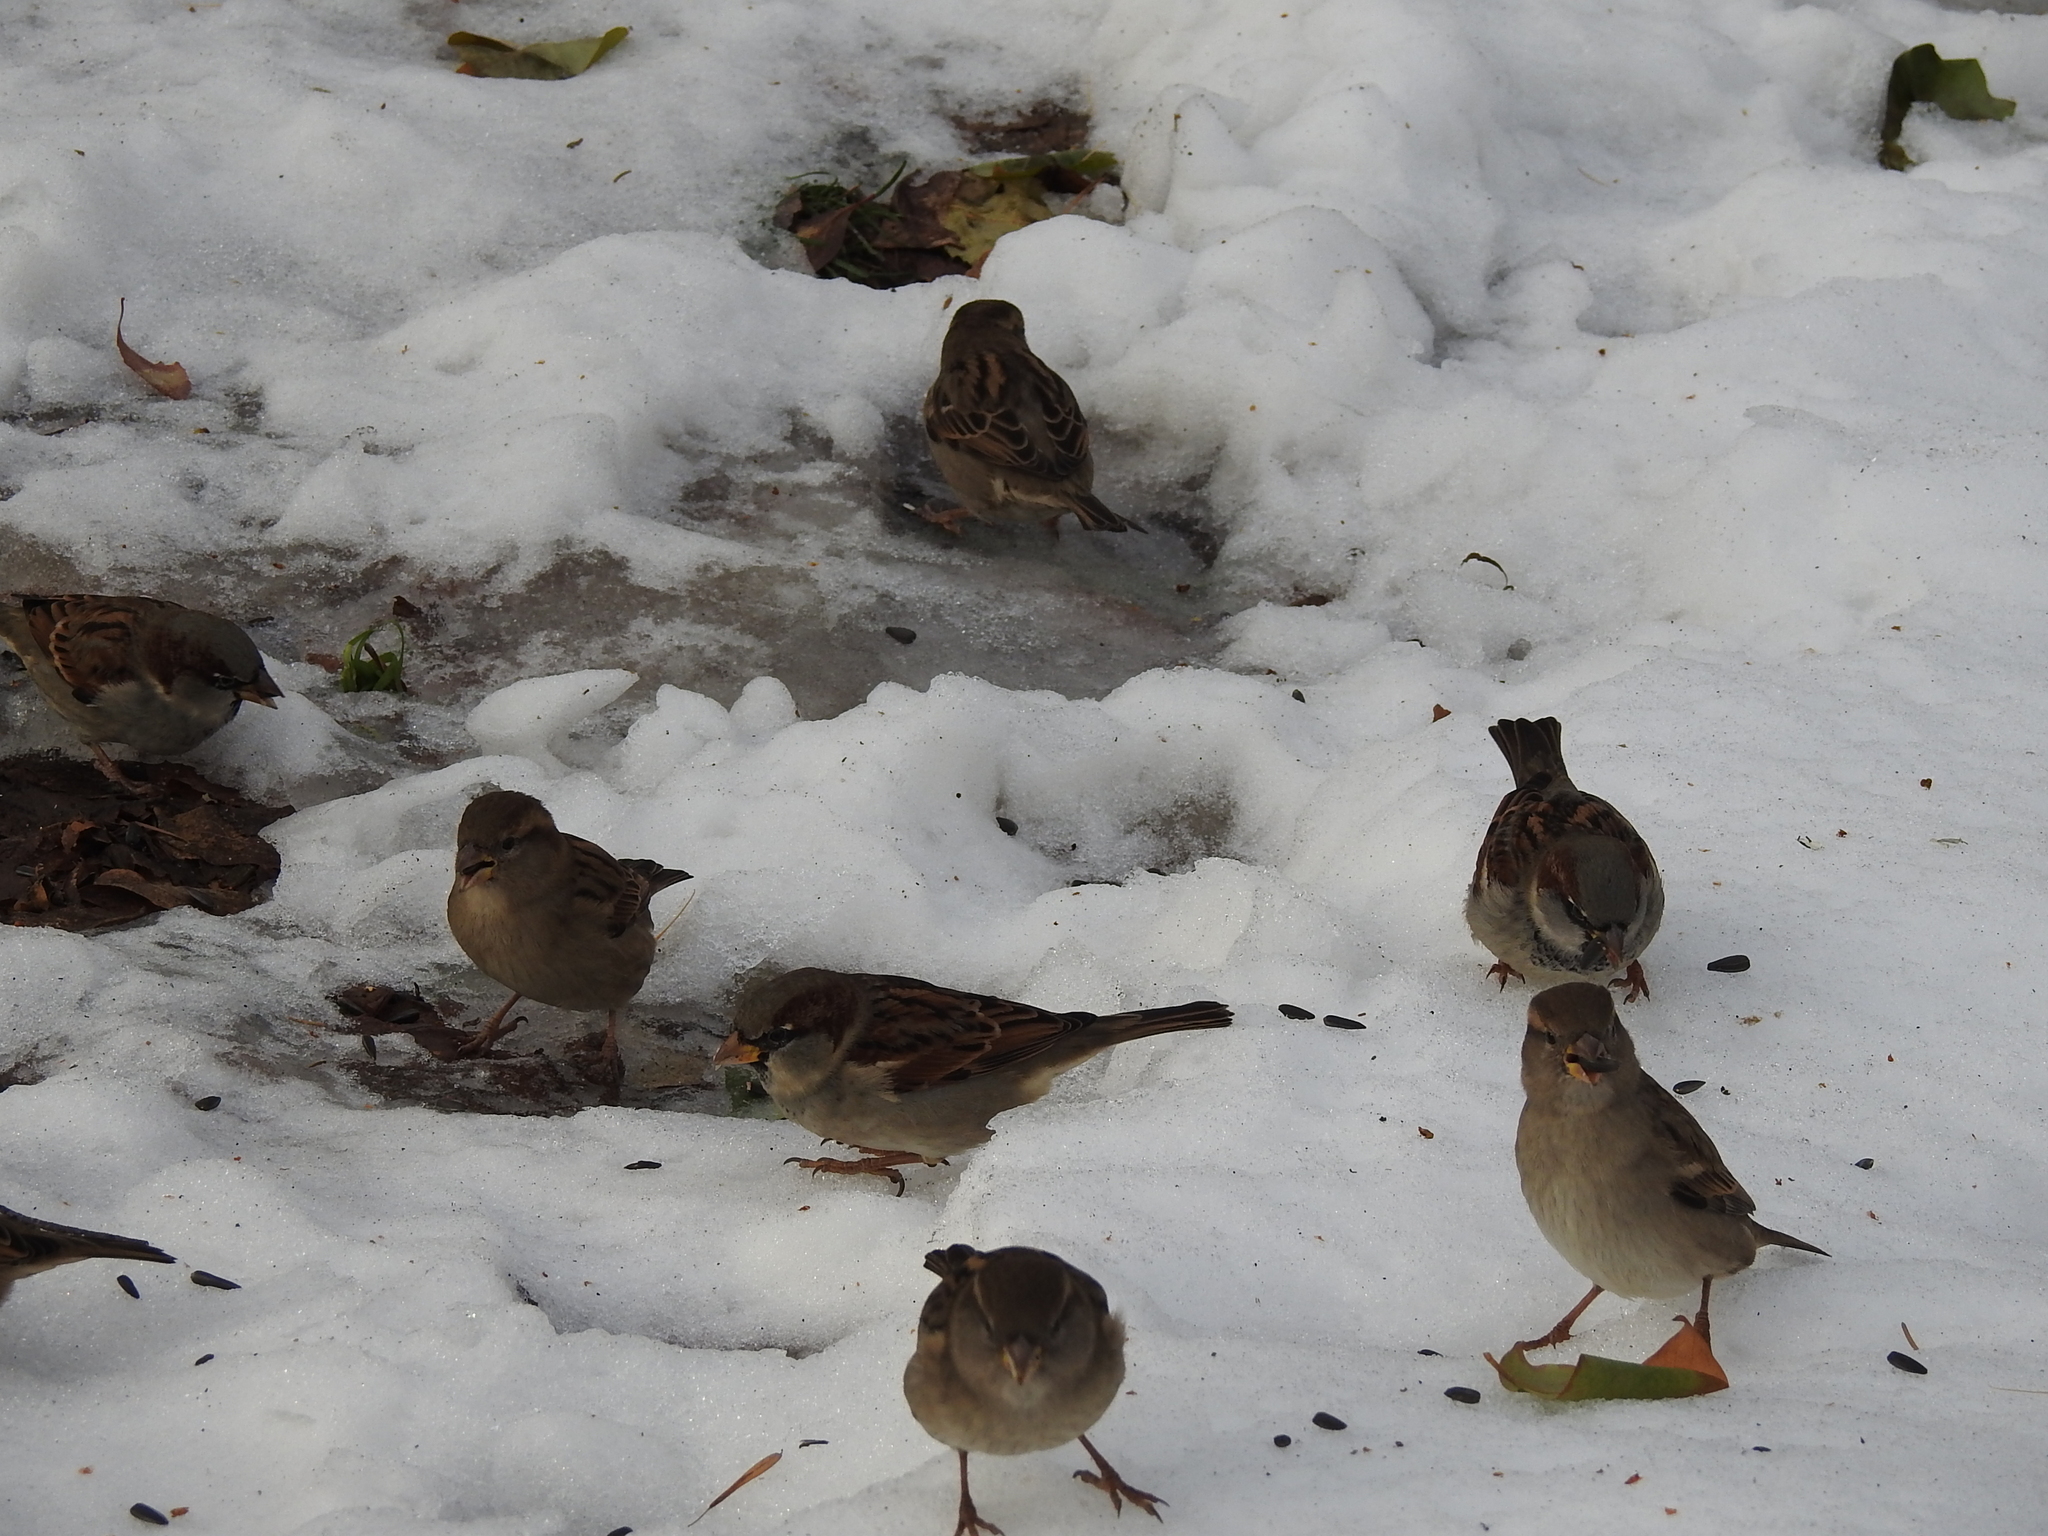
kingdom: Animalia
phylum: Chordata
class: Aves
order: Passeriformes
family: Passeridae
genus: Passer
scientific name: Passer domesticus
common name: House sparrow
